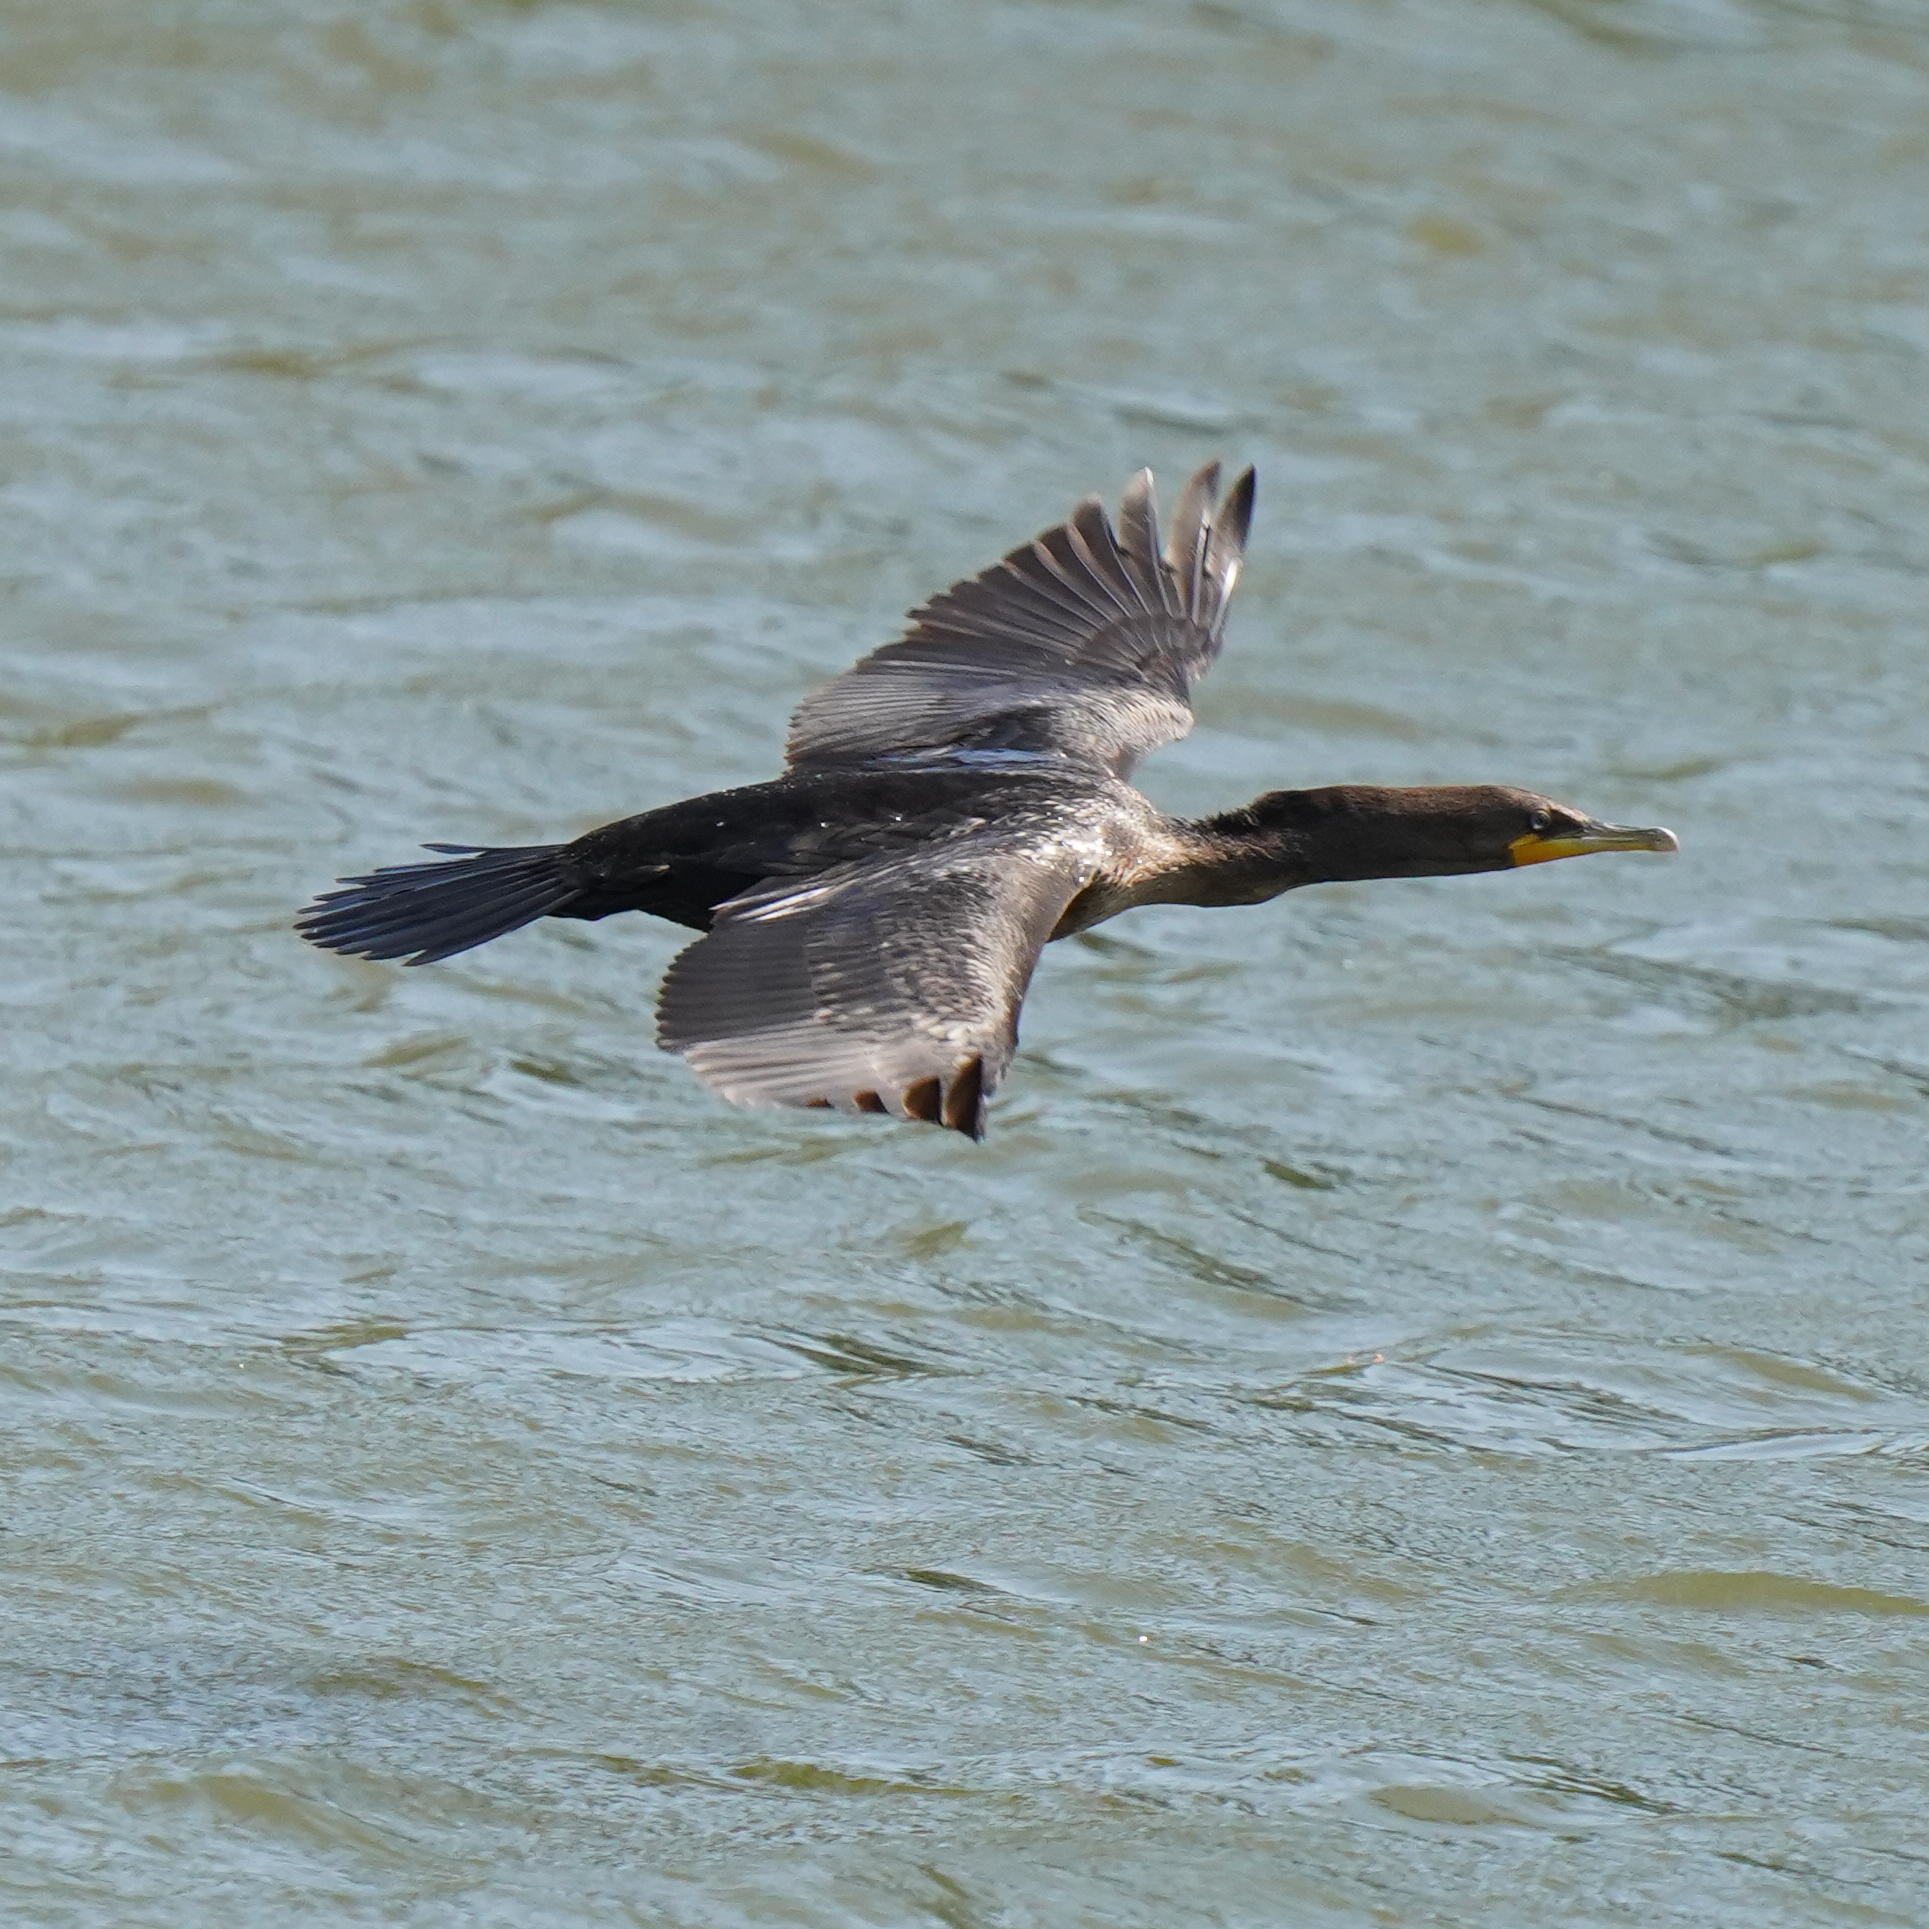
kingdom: Animalia
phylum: Chordata
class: Aves
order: Suliformes
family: Phalacrocoracidae
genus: Phalacrocorax
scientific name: Phalacrocorax auritus
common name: Double-crested cormorant
